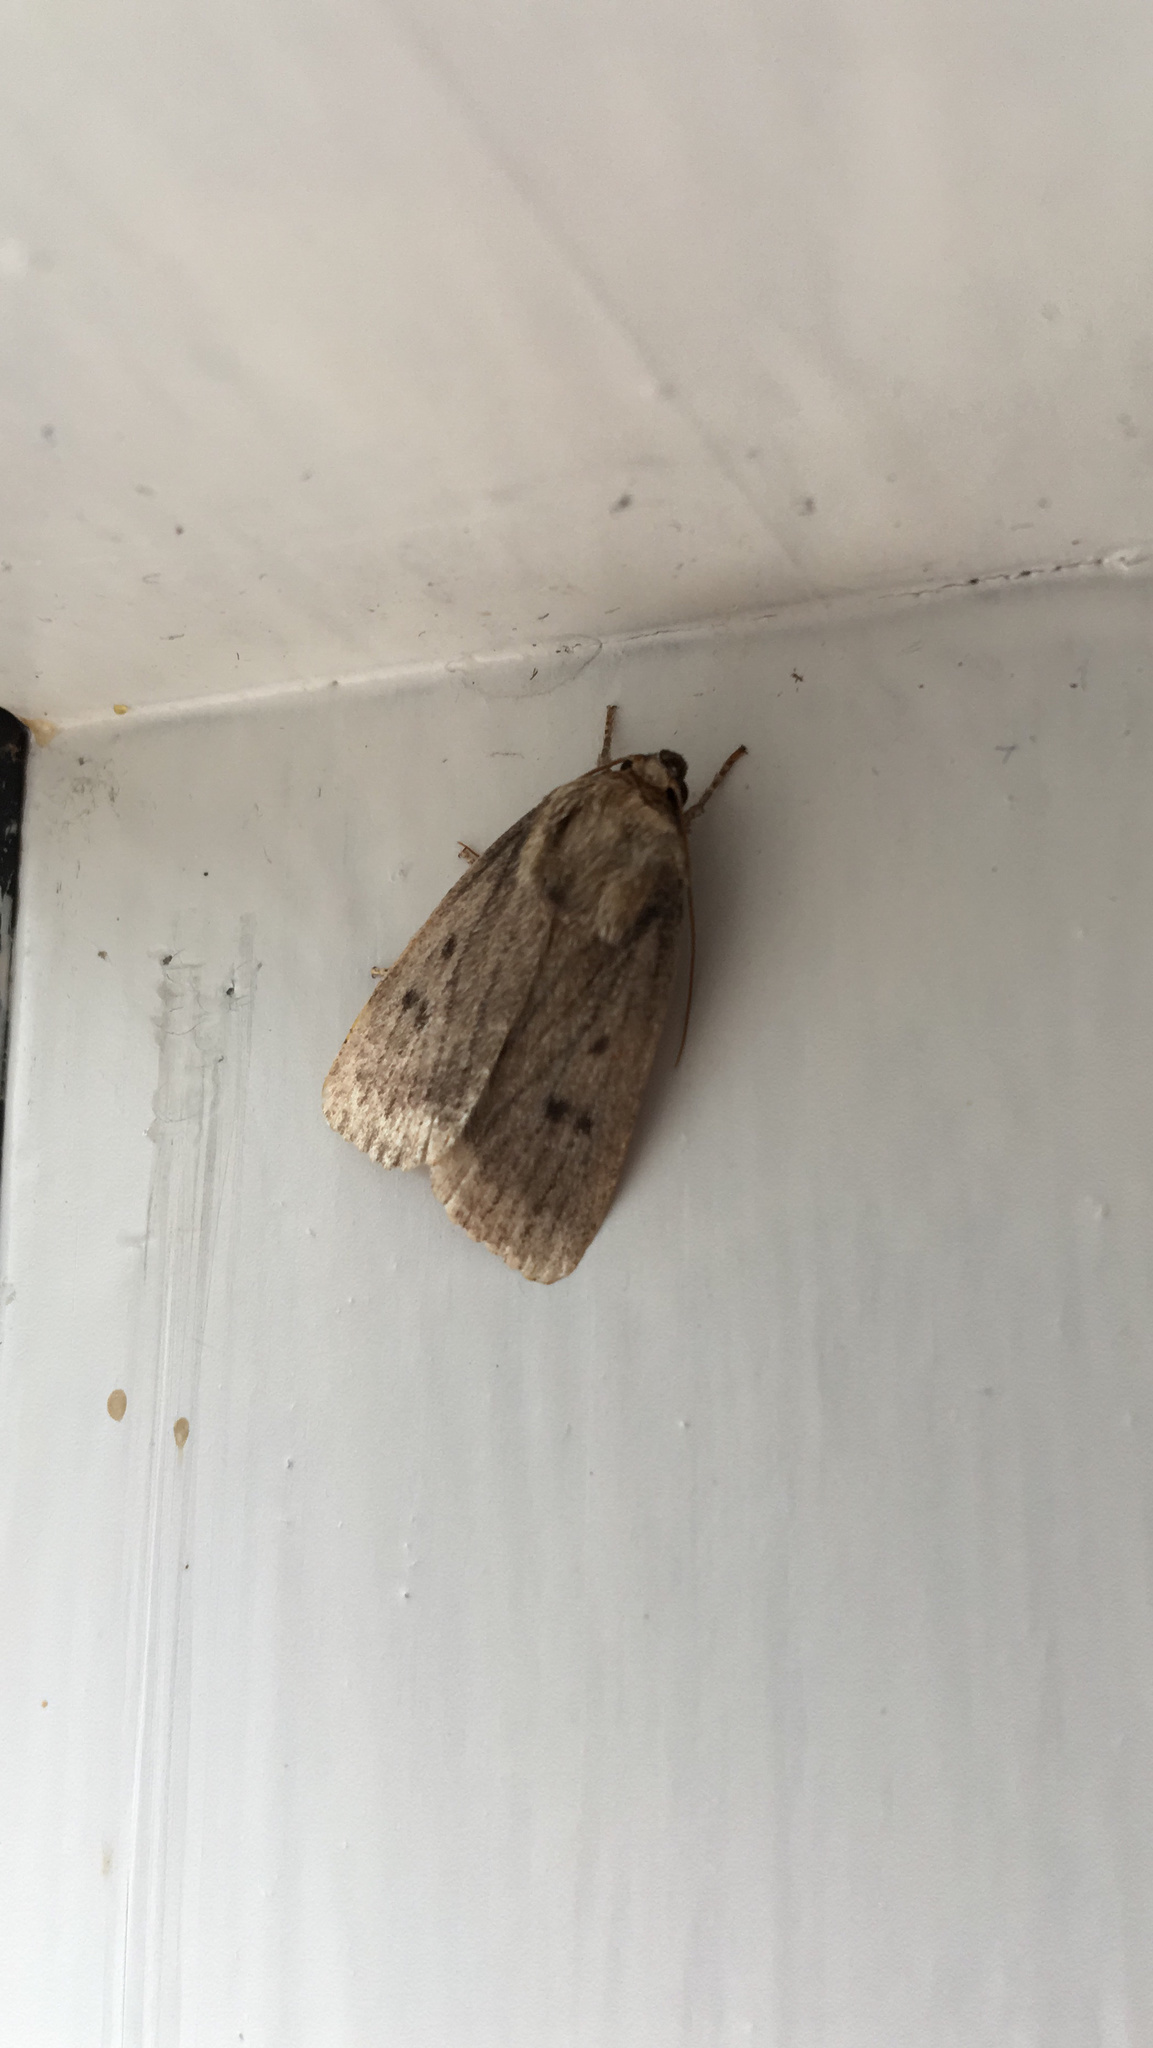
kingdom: Animalia
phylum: Arthropoda
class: Insecta
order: Lepidoptera
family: Noctuidae
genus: Amphipyra
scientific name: Amphipyra tragopoginis
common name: Mouse moth
